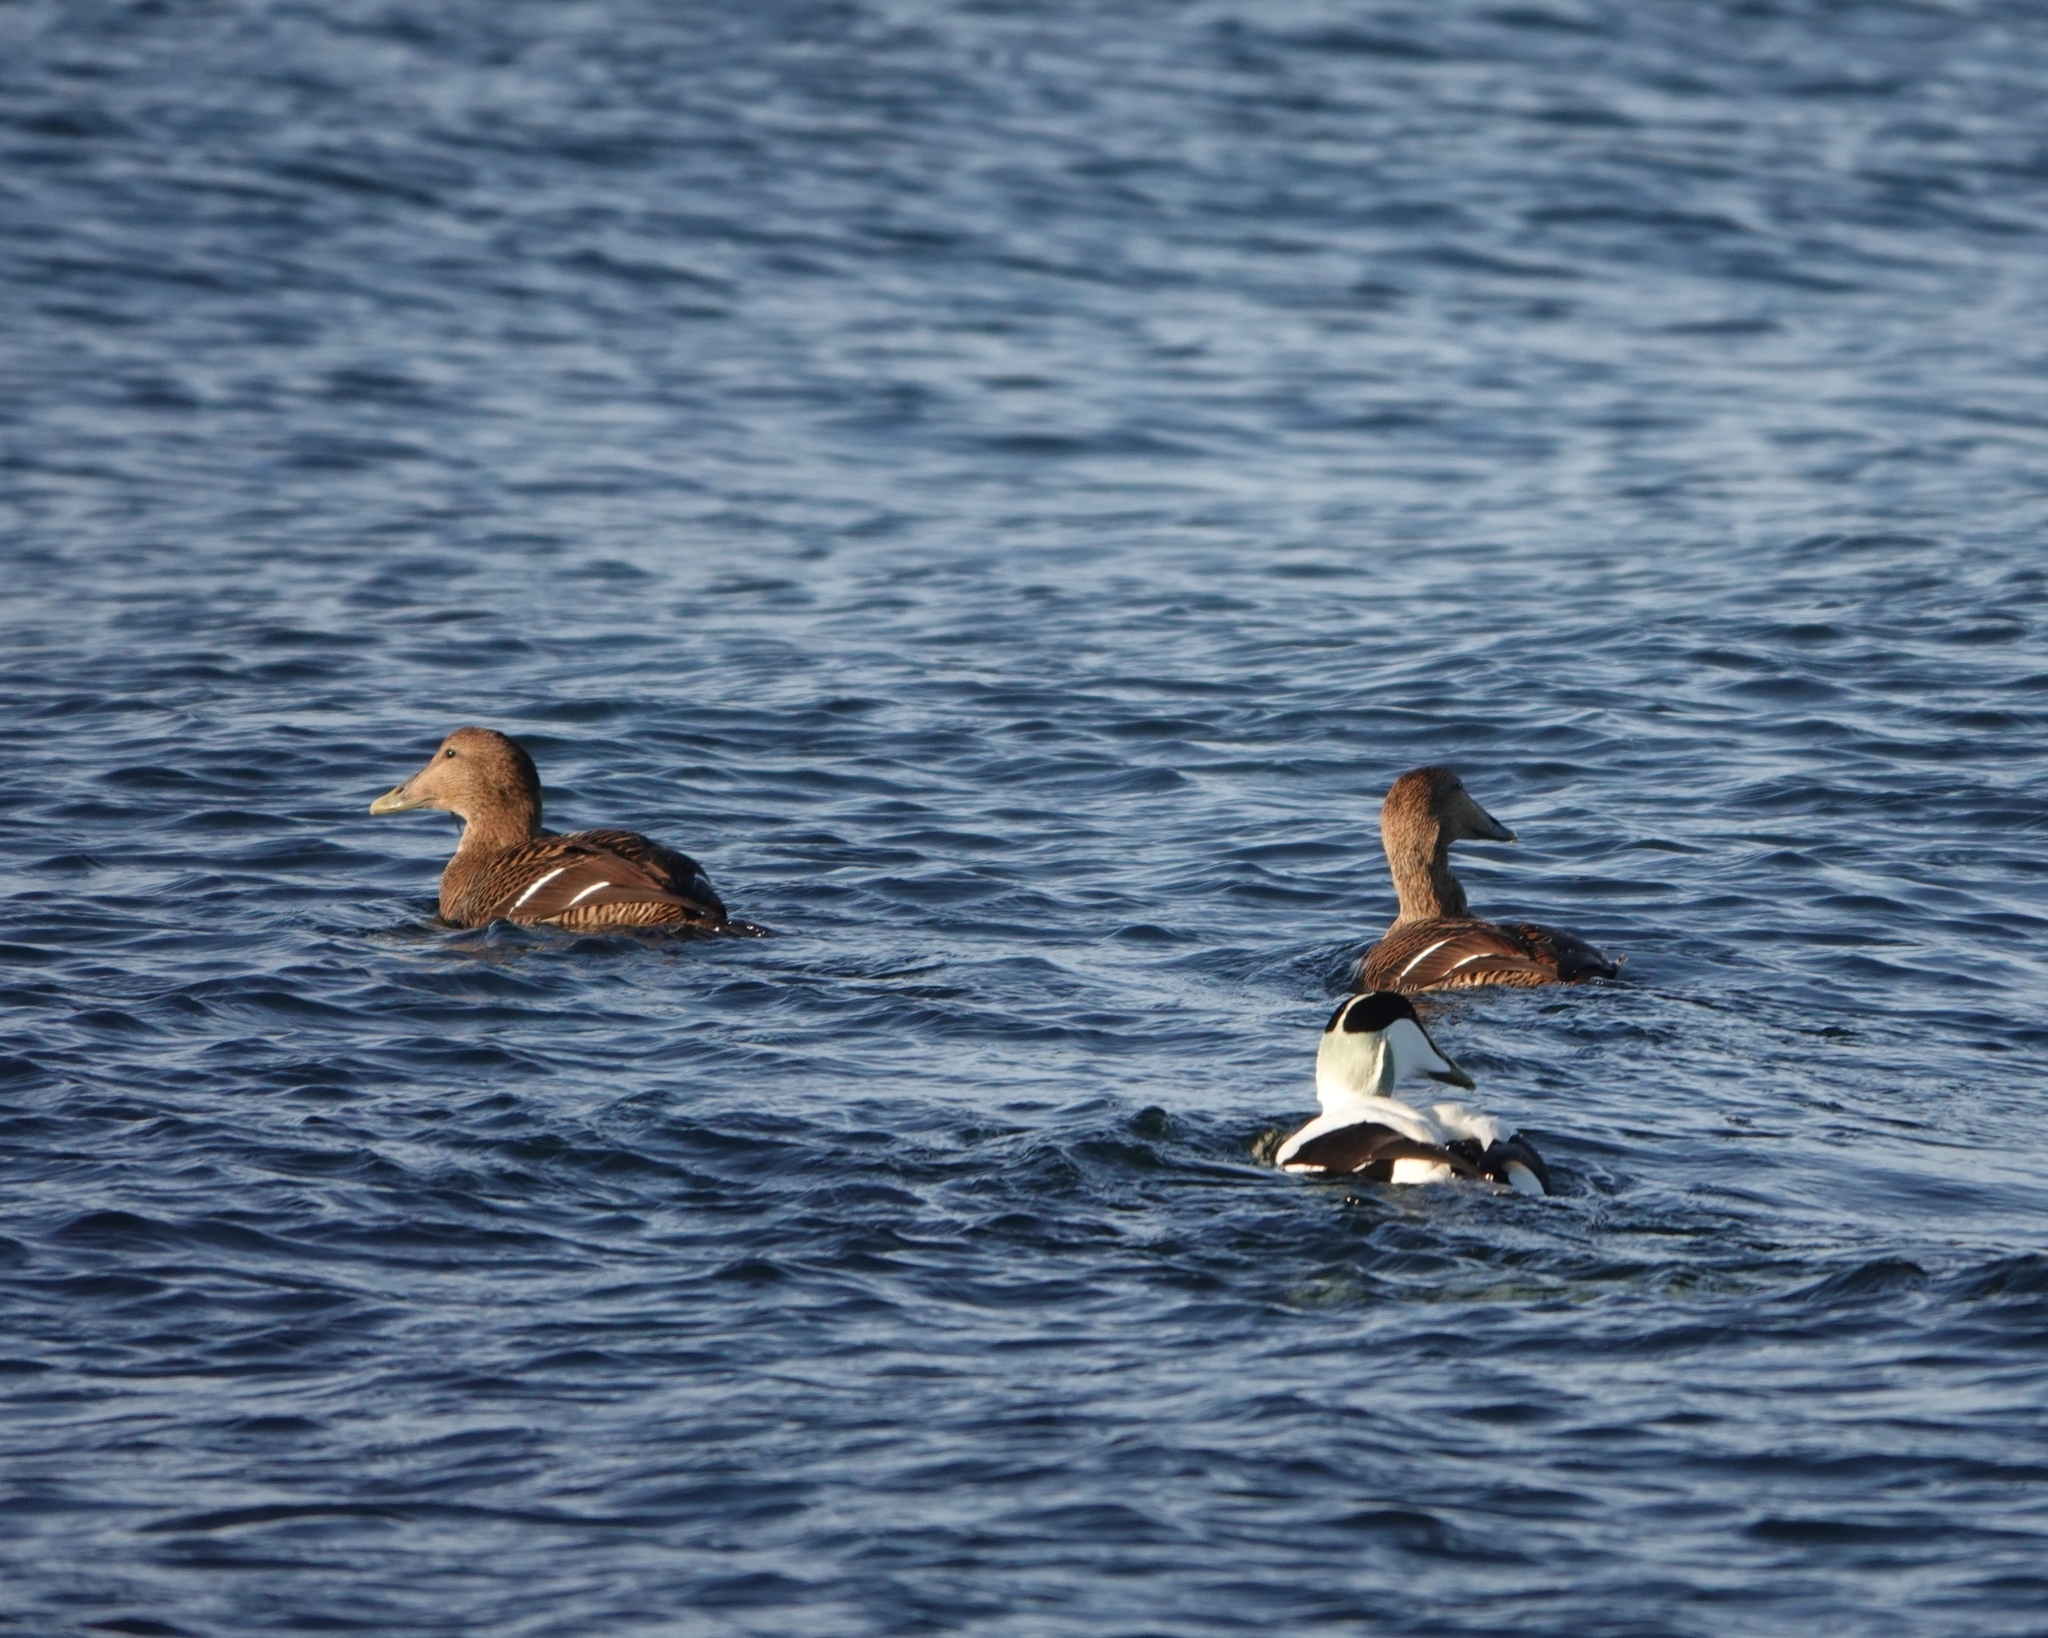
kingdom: Animalia
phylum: Chordata
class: Aves
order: Anseriformes
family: Anatidae
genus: Somateria
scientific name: Somateria mollissima
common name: Common eider
